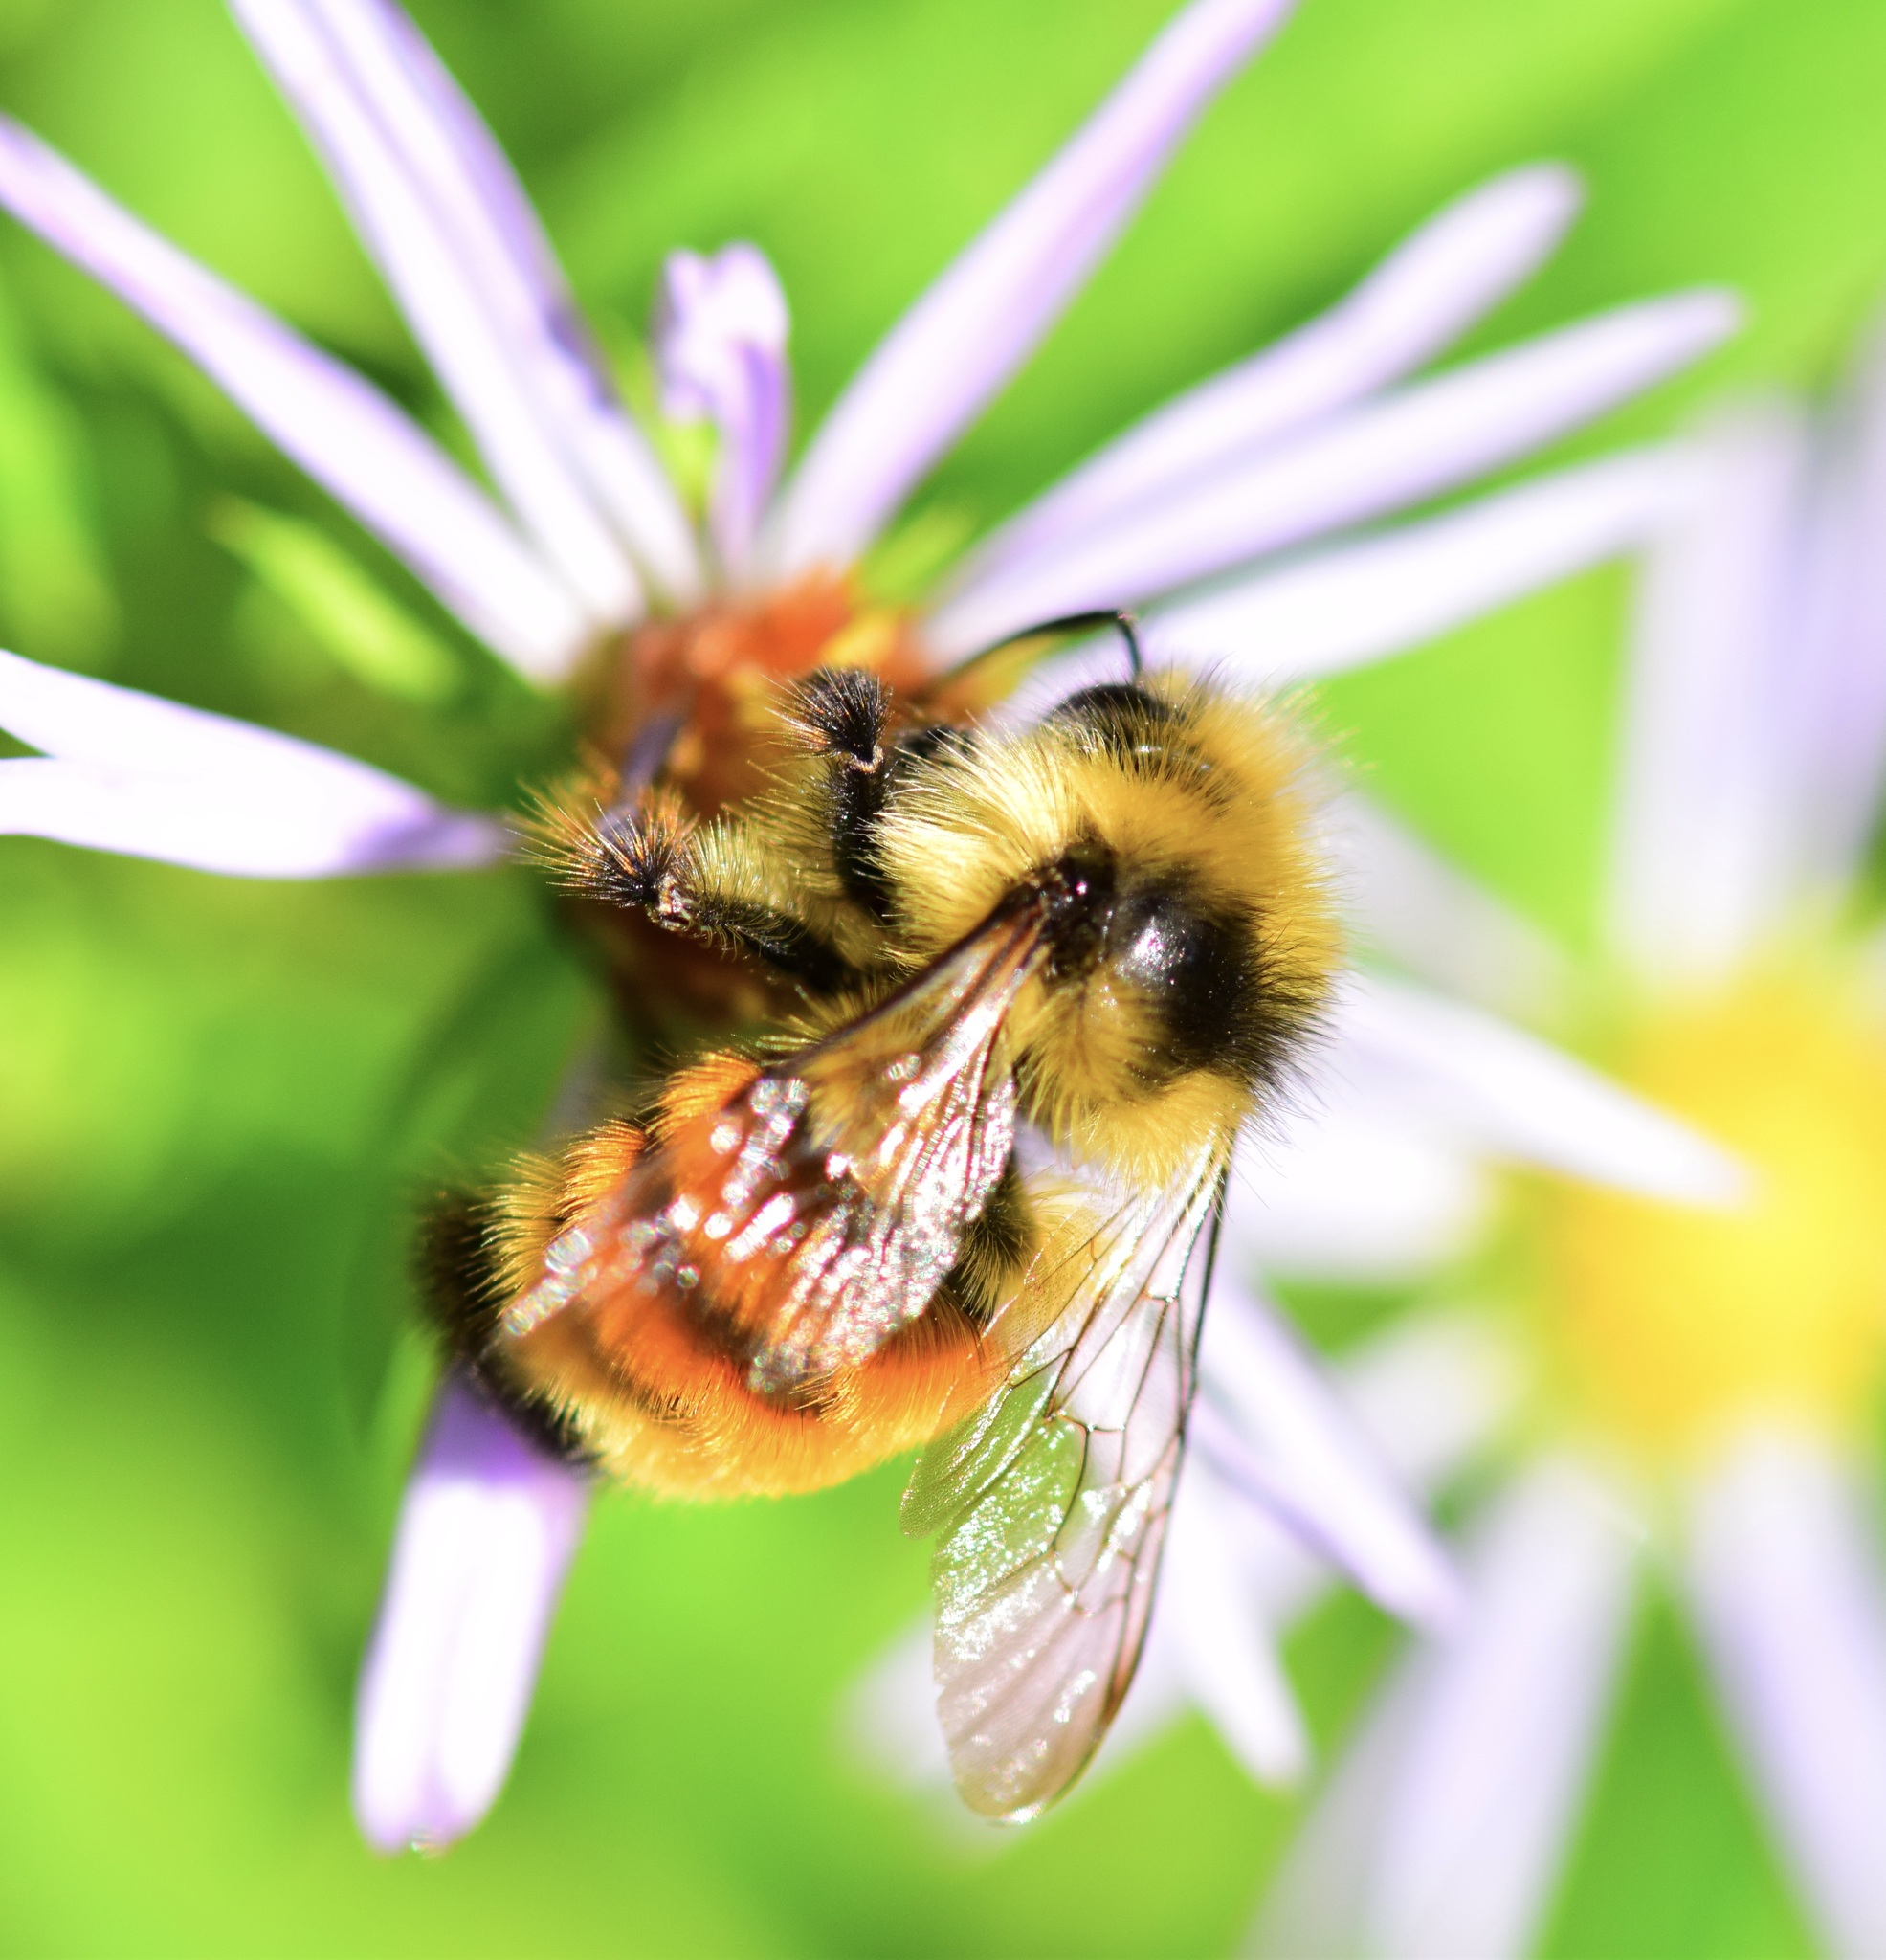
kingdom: Animalia
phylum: Arthropoda
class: Insecta
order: Hymenoptera
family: Apidae
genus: Bombus
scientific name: Bombus ternarius
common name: Tri-colored bumble bee
